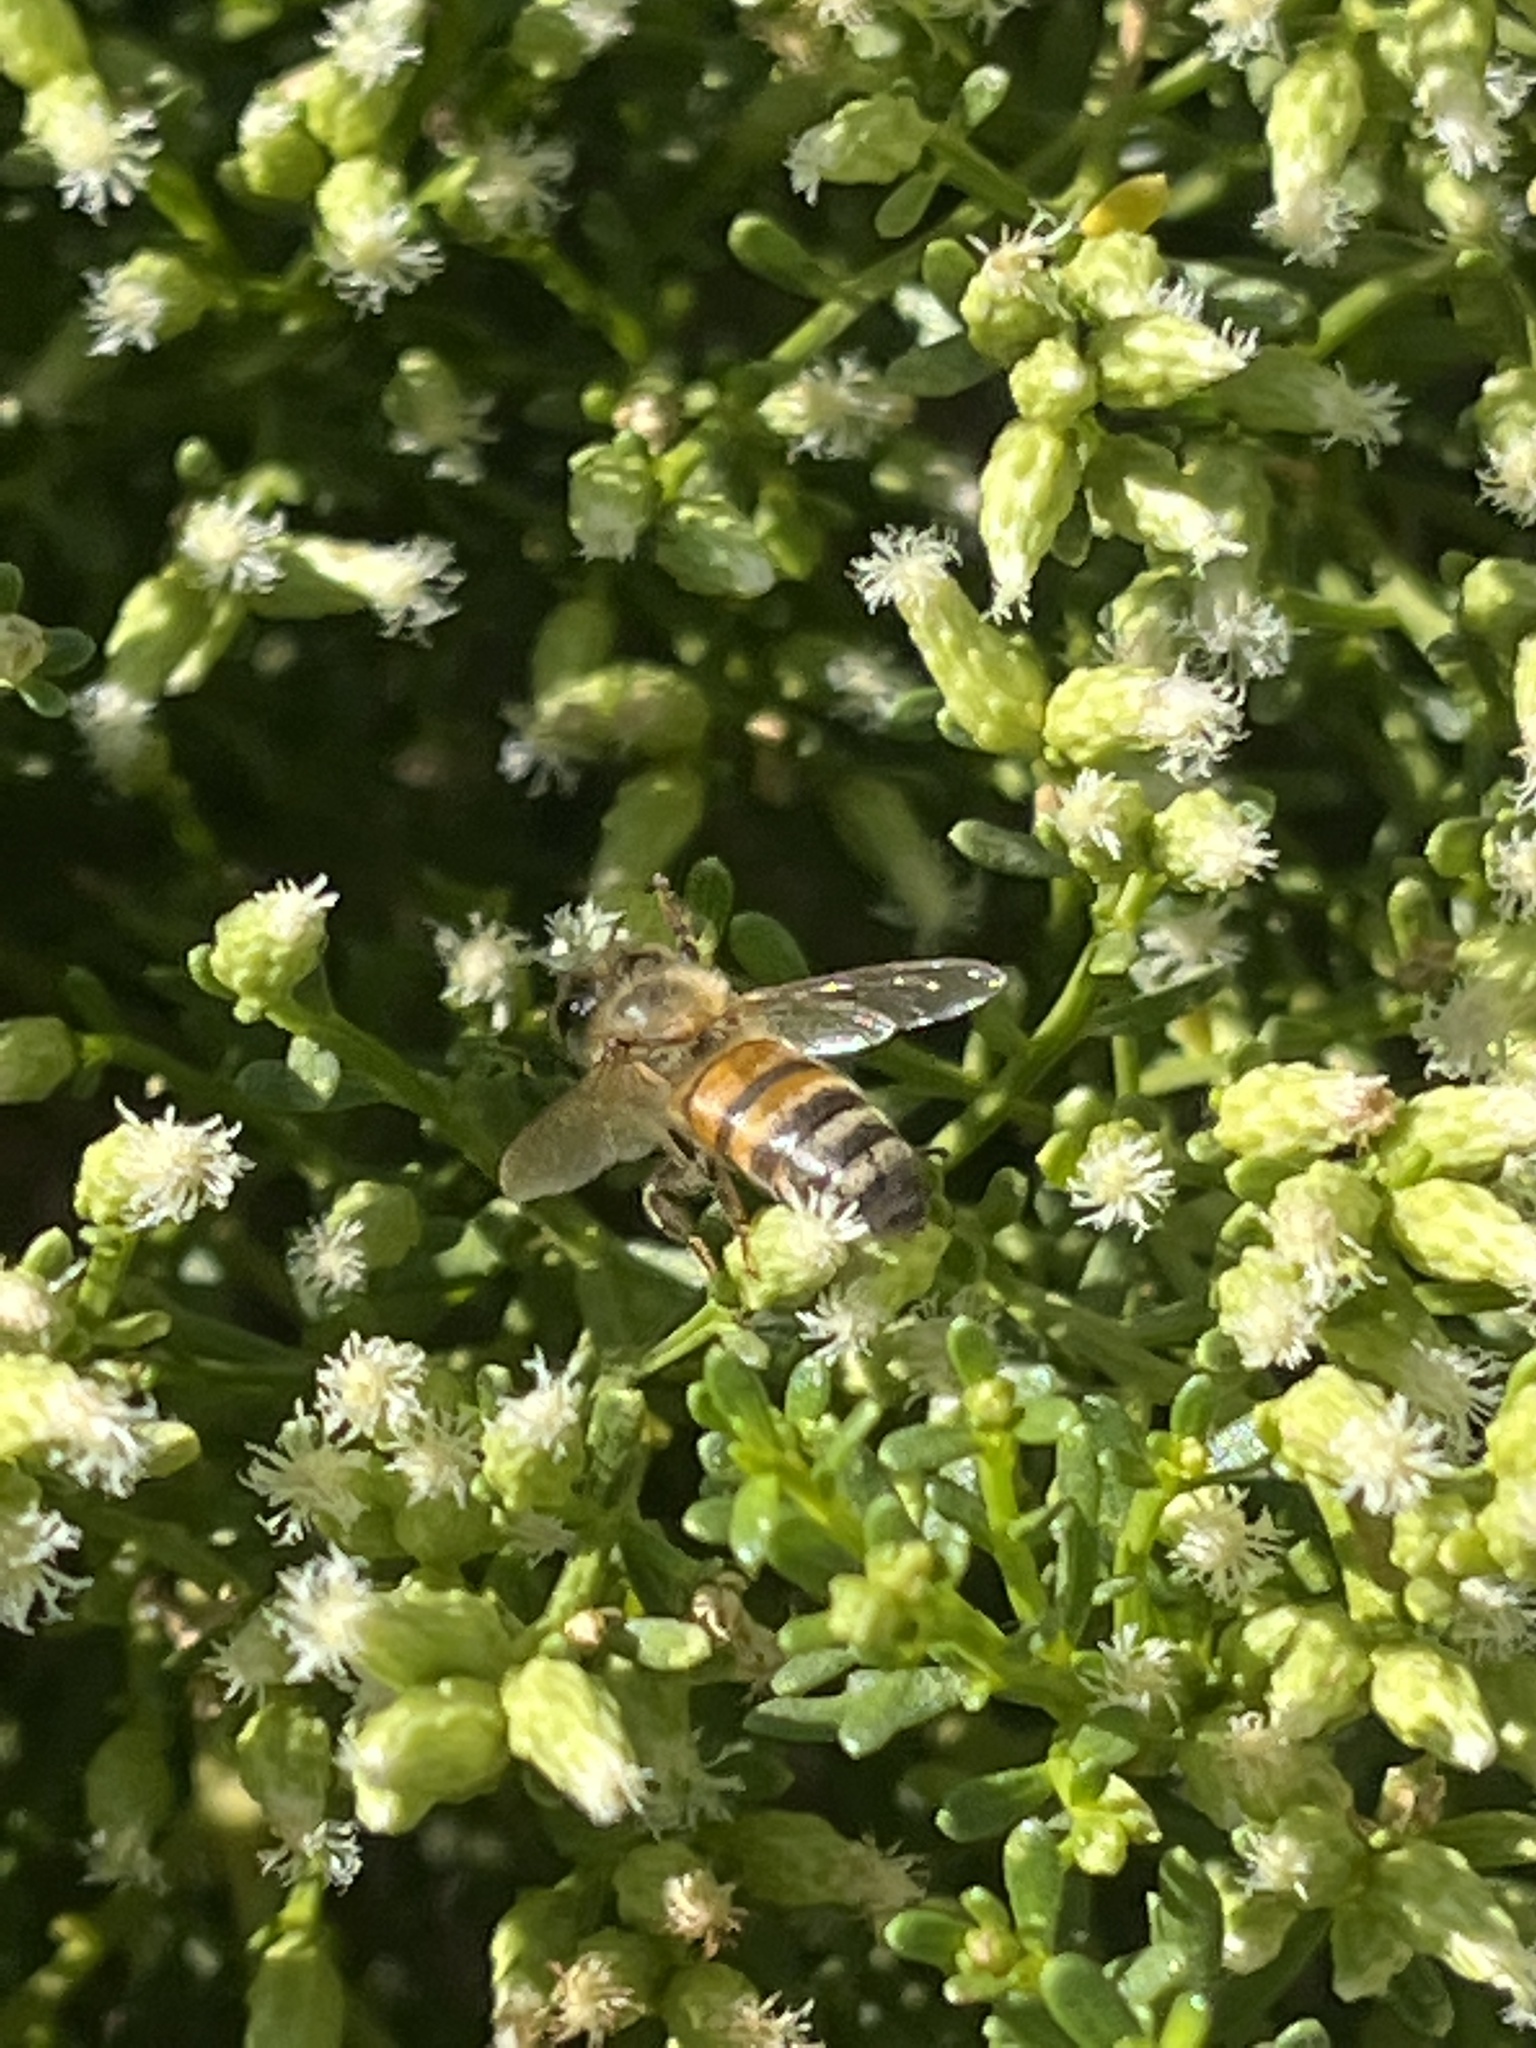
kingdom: Animalia
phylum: Arthropoda
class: Insecta
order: Hymenoptera
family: Apidae
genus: Apis
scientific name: Apis mellifera
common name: Honey bee
